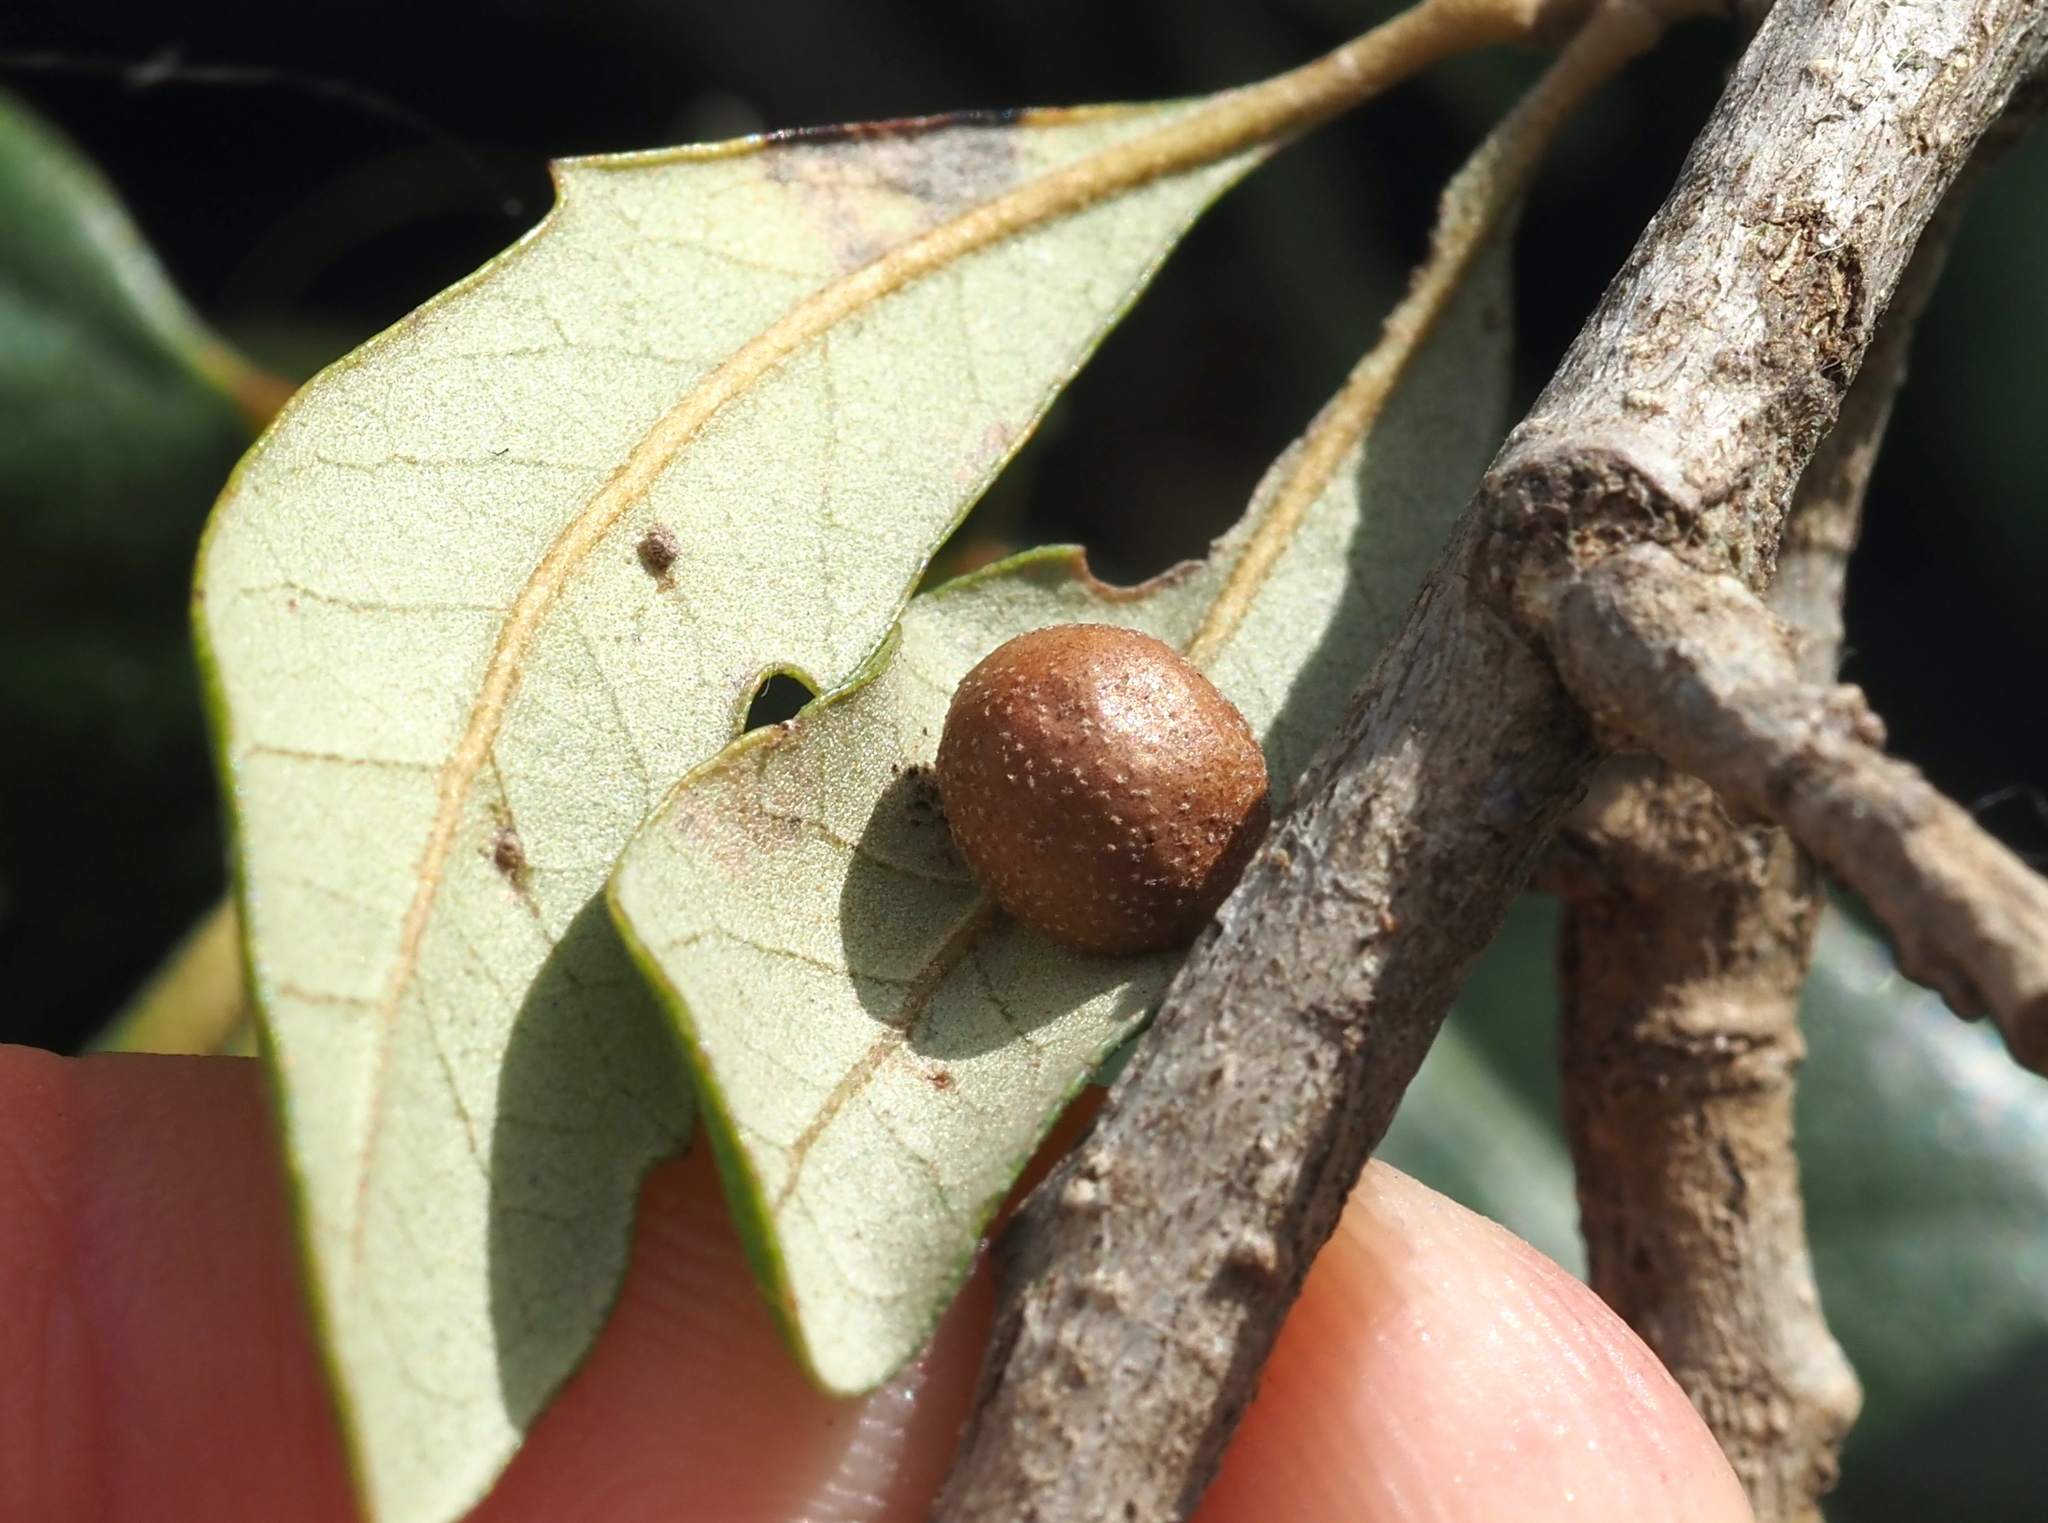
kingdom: Animalia
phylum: Arthropoda
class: Insecta
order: Hymenoptera
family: Cynipidae
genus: Belonocnema
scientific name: Belonocnema kinseyi
